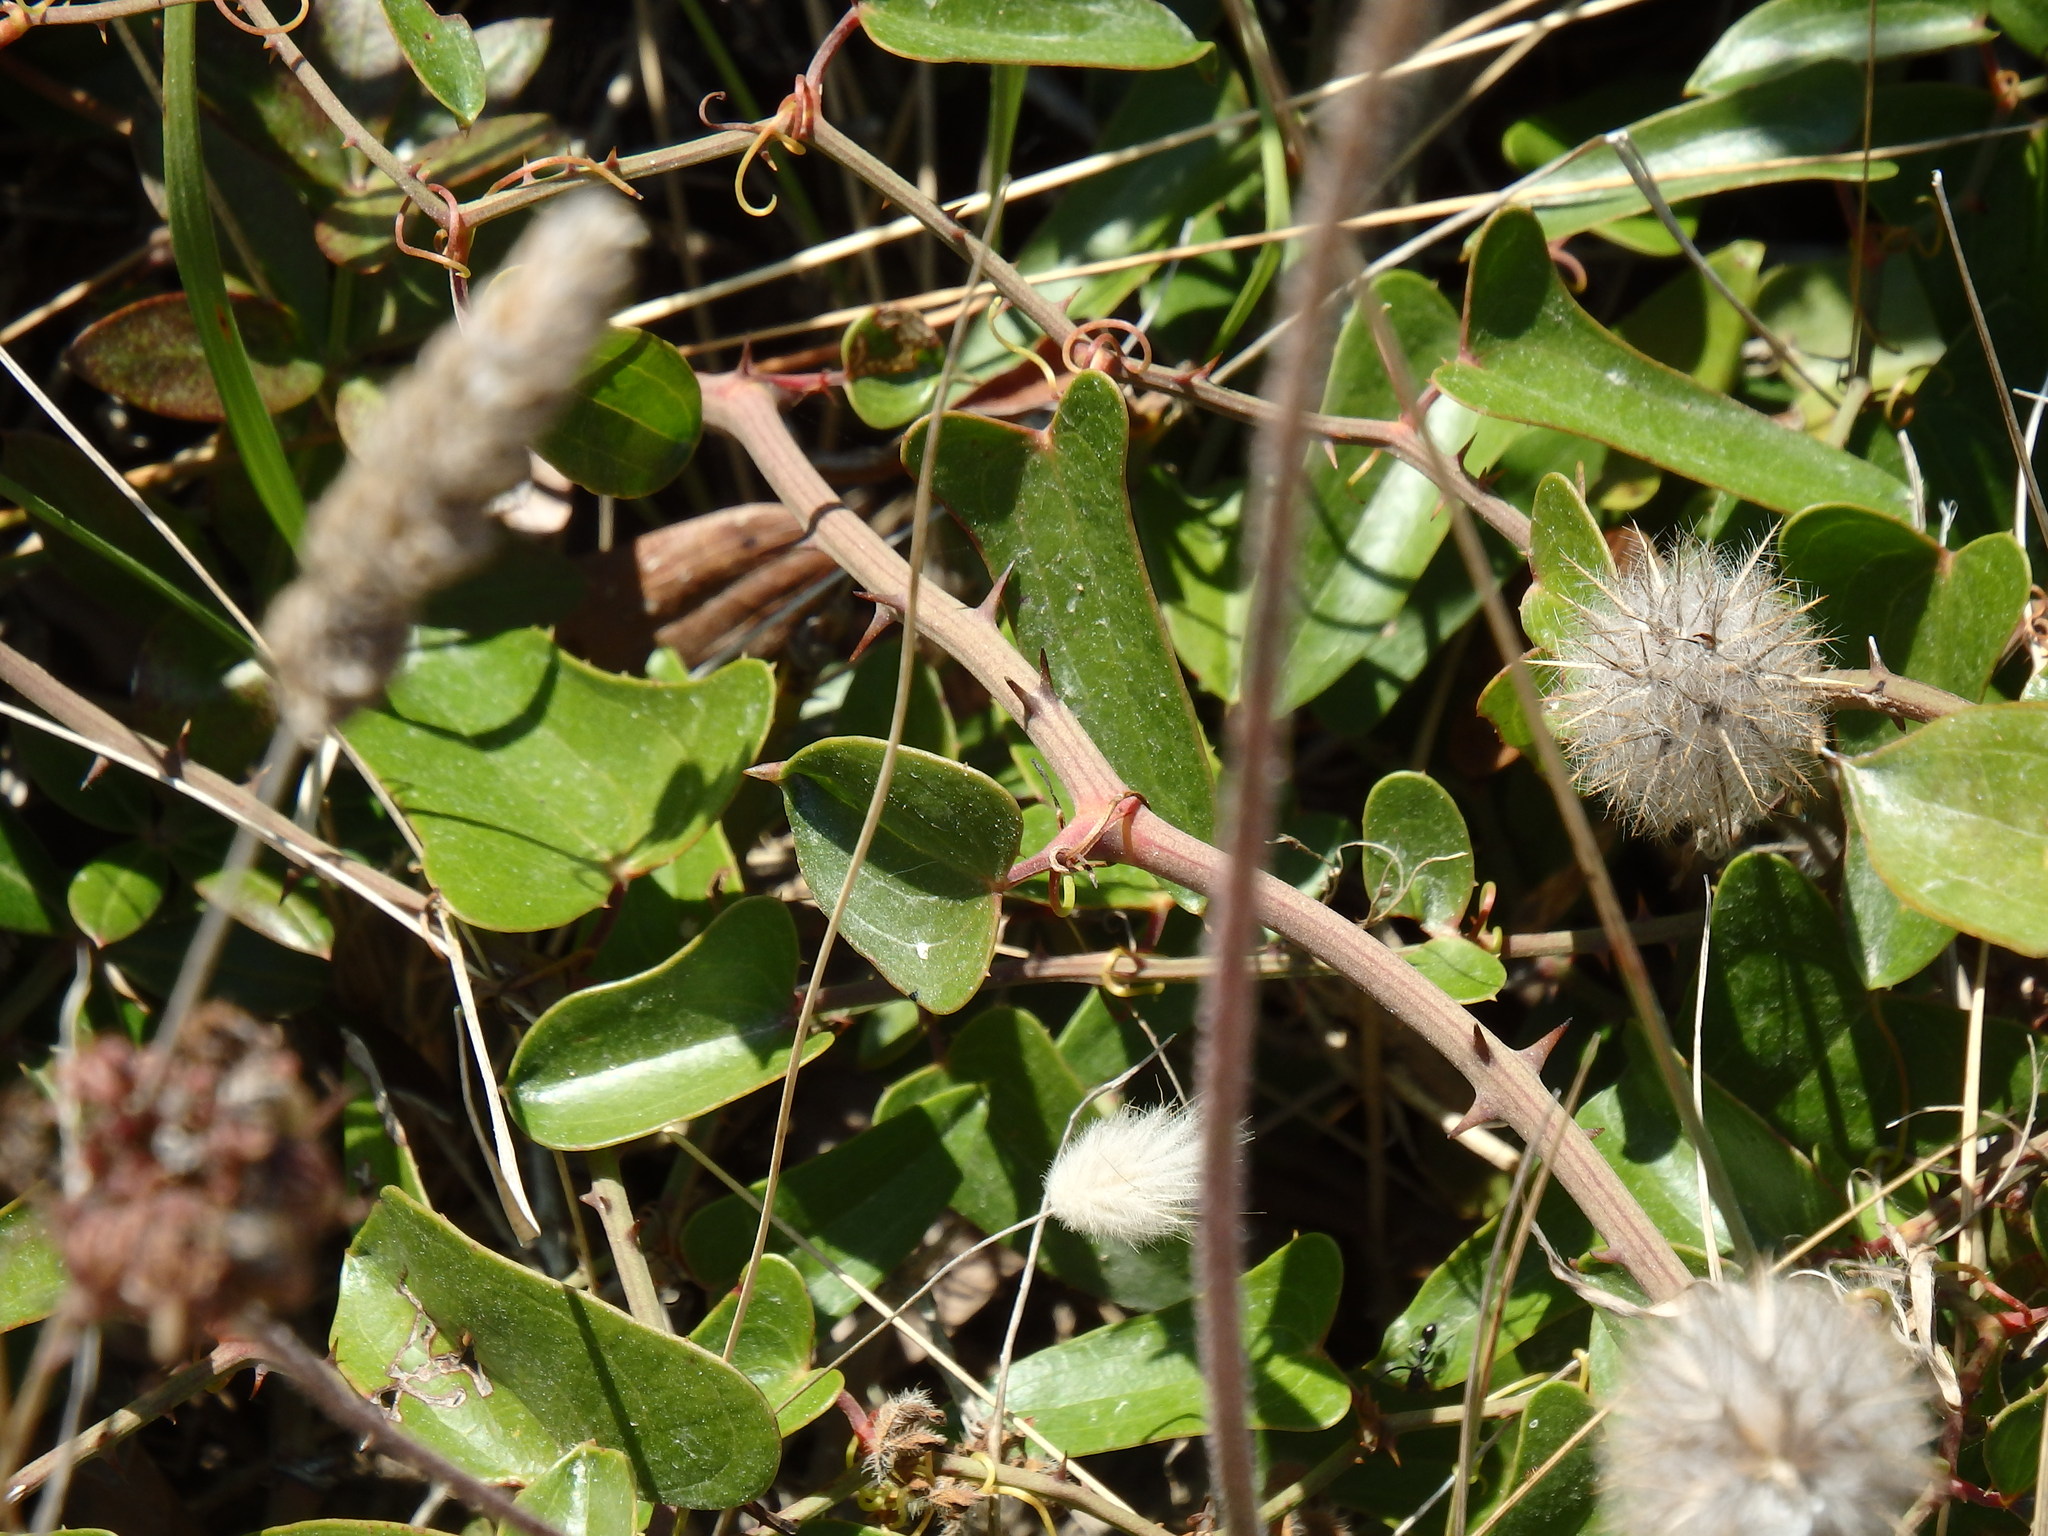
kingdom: Plantae
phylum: Tracheophyta
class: Liliopsida
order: Liliales
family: Smilacaceae
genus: Smilax
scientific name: Smilax aspera
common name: Common smilax
